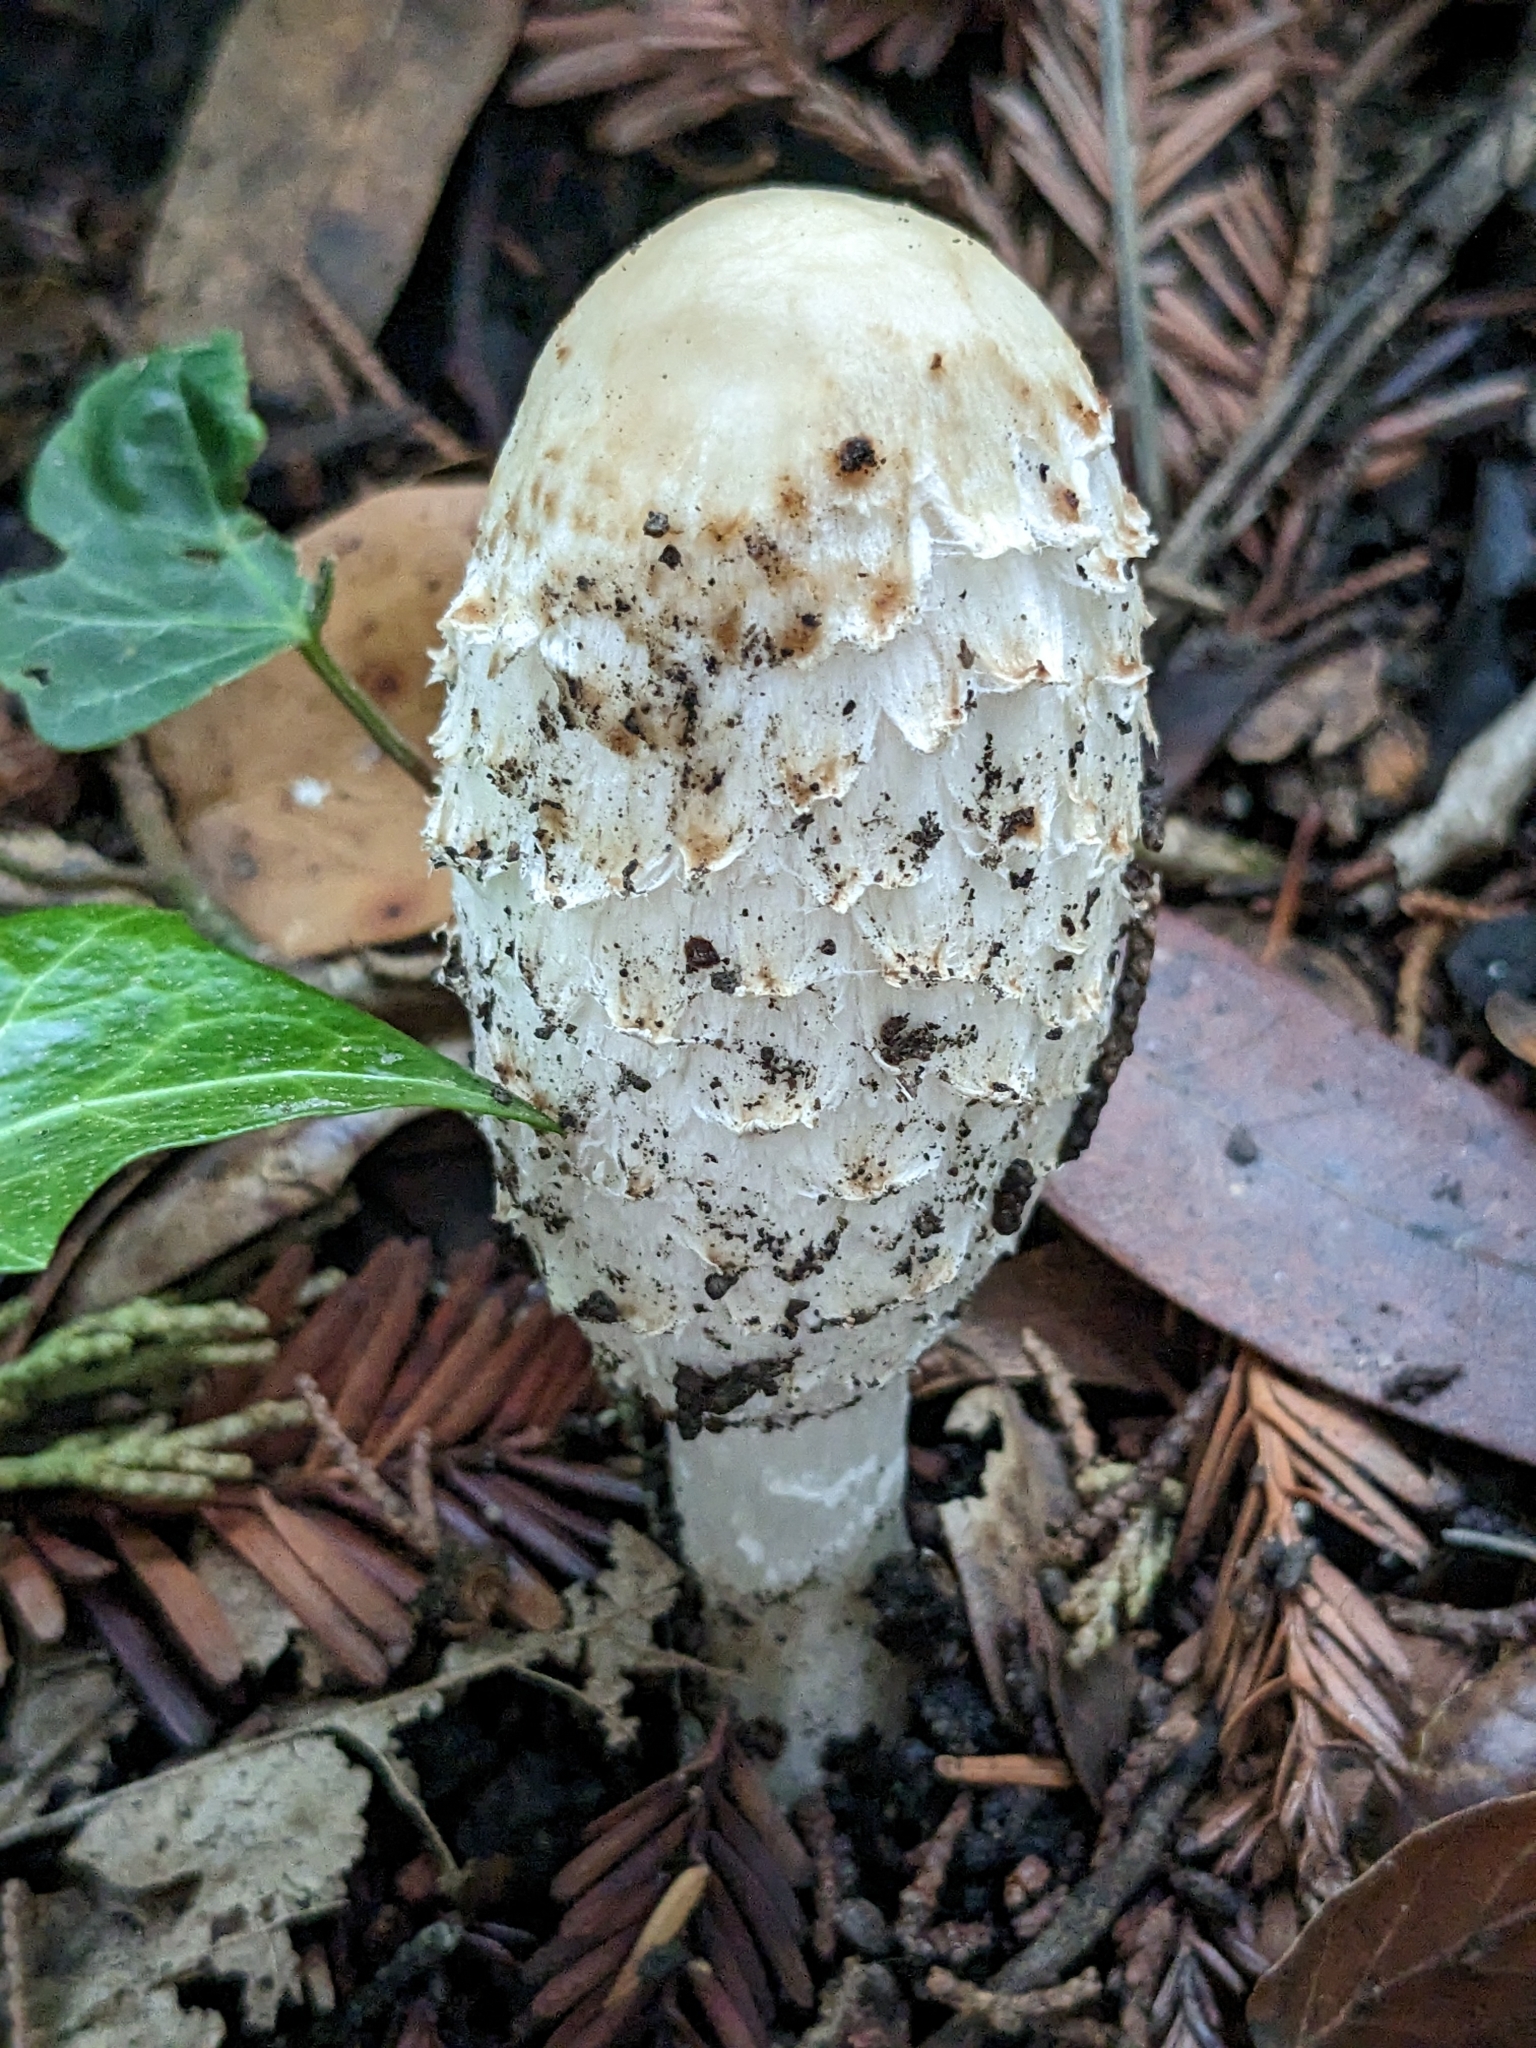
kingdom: Fungi
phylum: Basidiomycota
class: Agaricomycetes
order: Agaricales
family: Agaricaceae
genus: Coprinus
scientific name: Coprinus comatus
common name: Lawyer's wig
